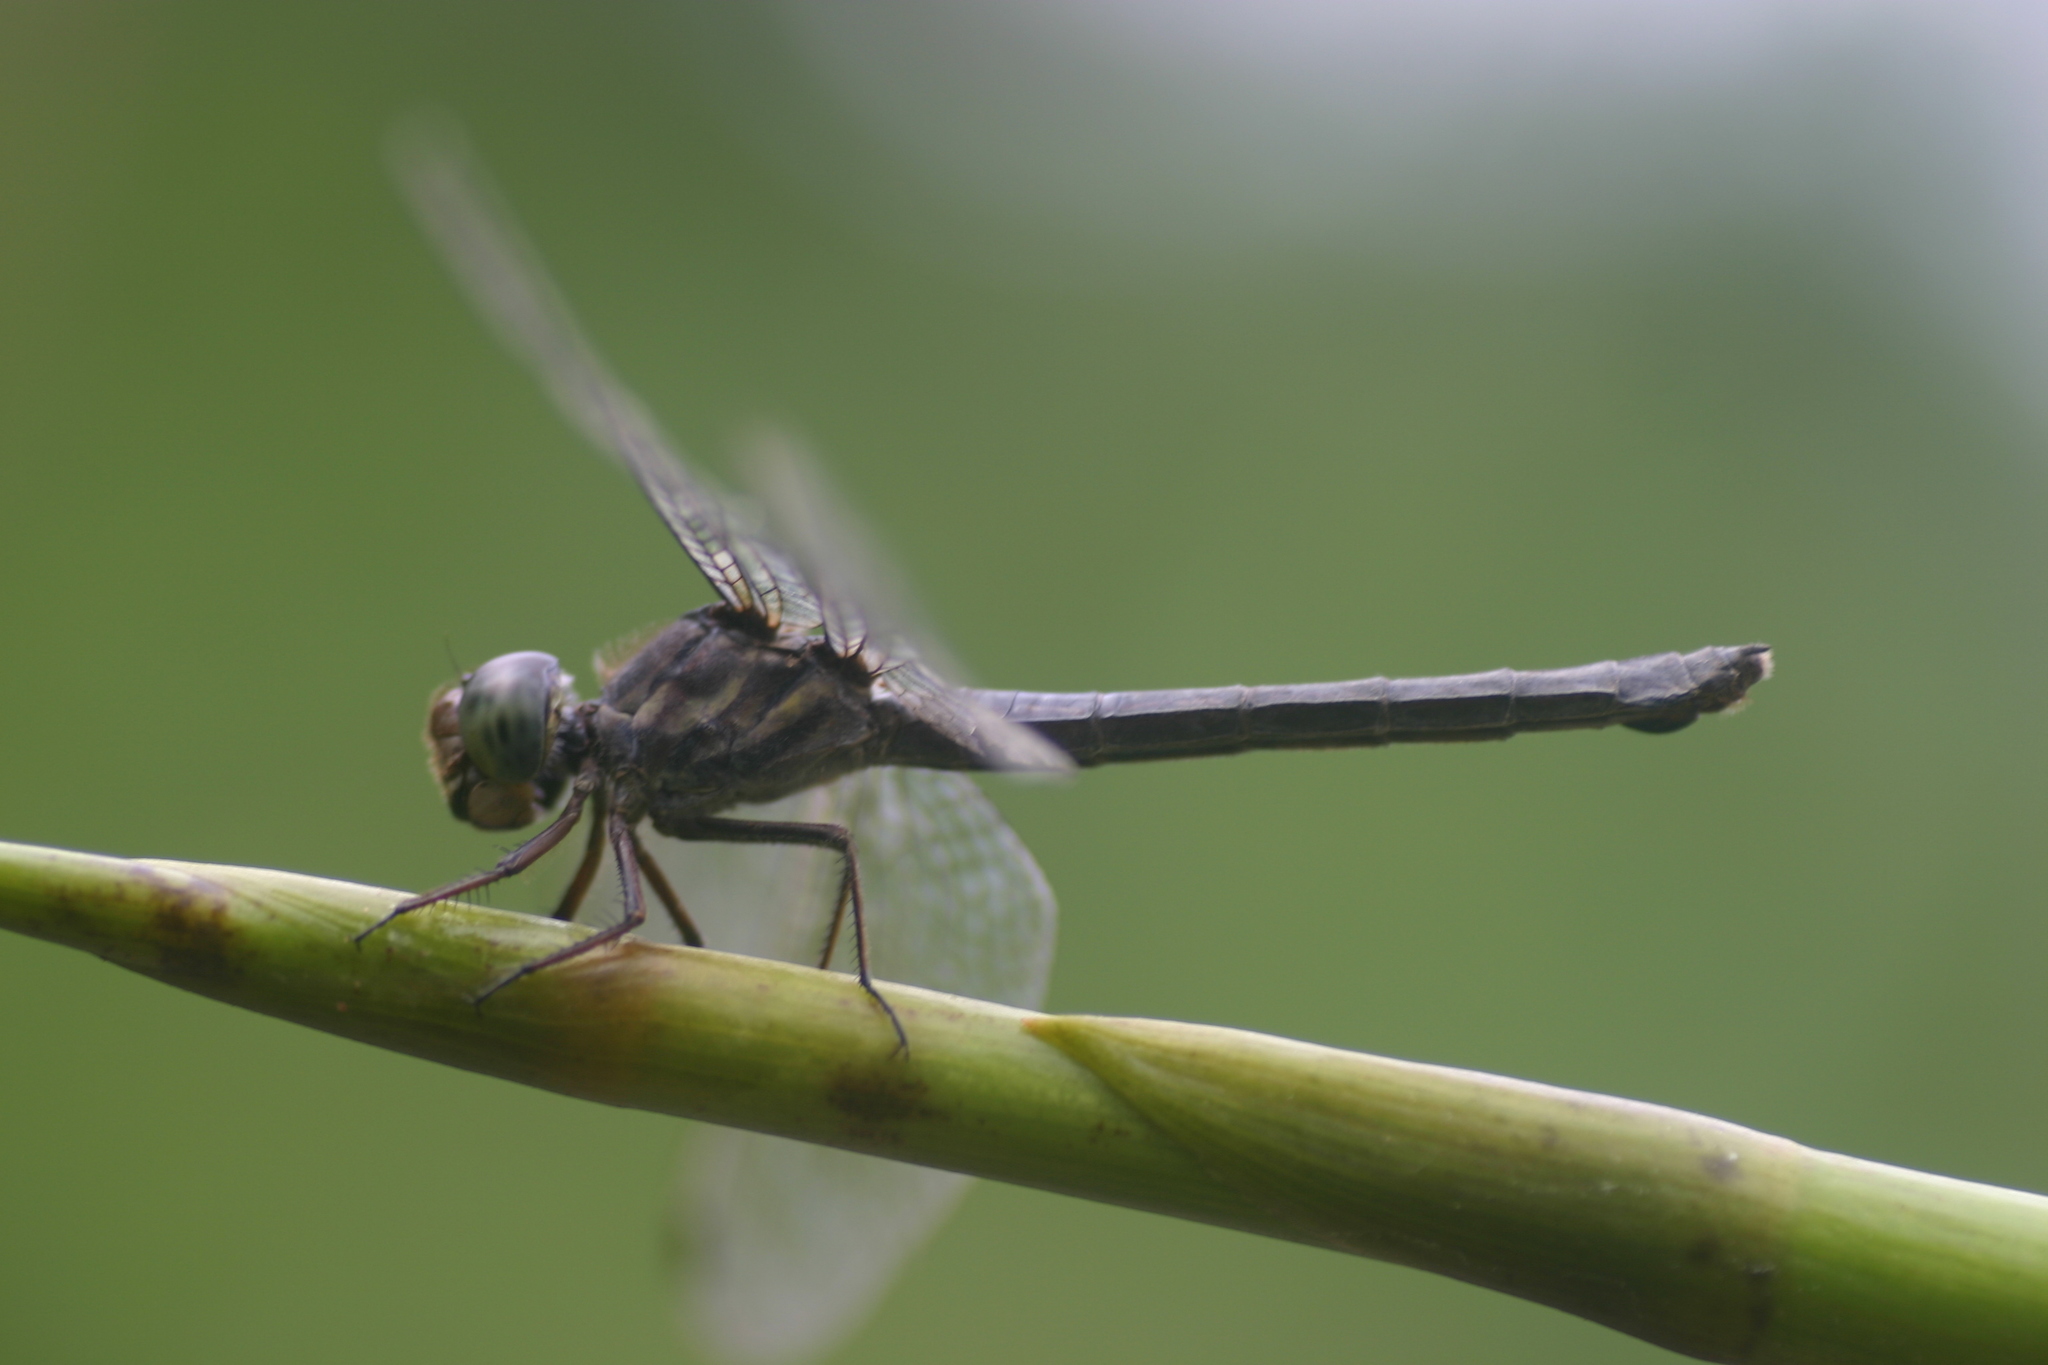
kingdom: Animalia
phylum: Arthropoda
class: Insecta
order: Odonata
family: Libellulidae
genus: Cratilla
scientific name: Cratilla lineata
